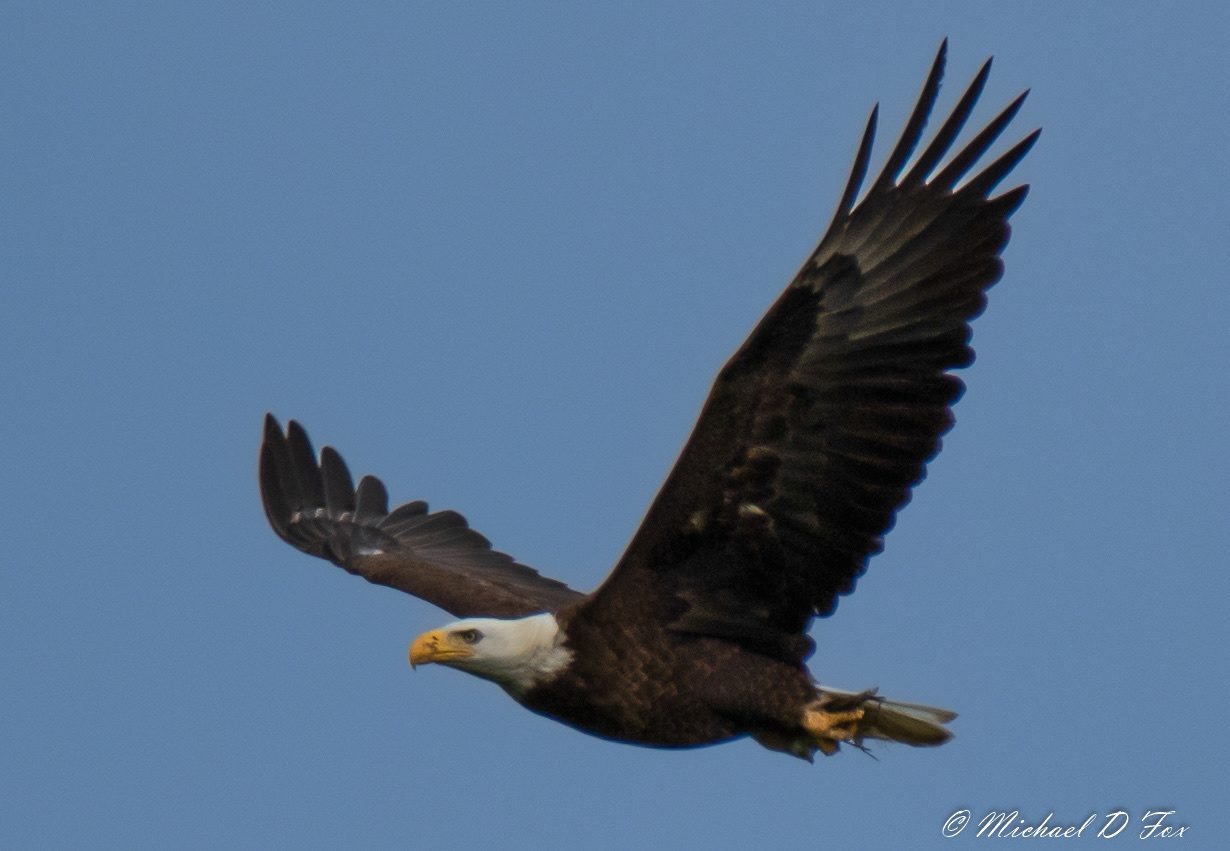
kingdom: Animalia
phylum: Chordata
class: Aves
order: Accipitriformes
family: Accipitridae
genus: Haliaeetus
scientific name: Haliaeetus leucocephalus
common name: Bald eagle
